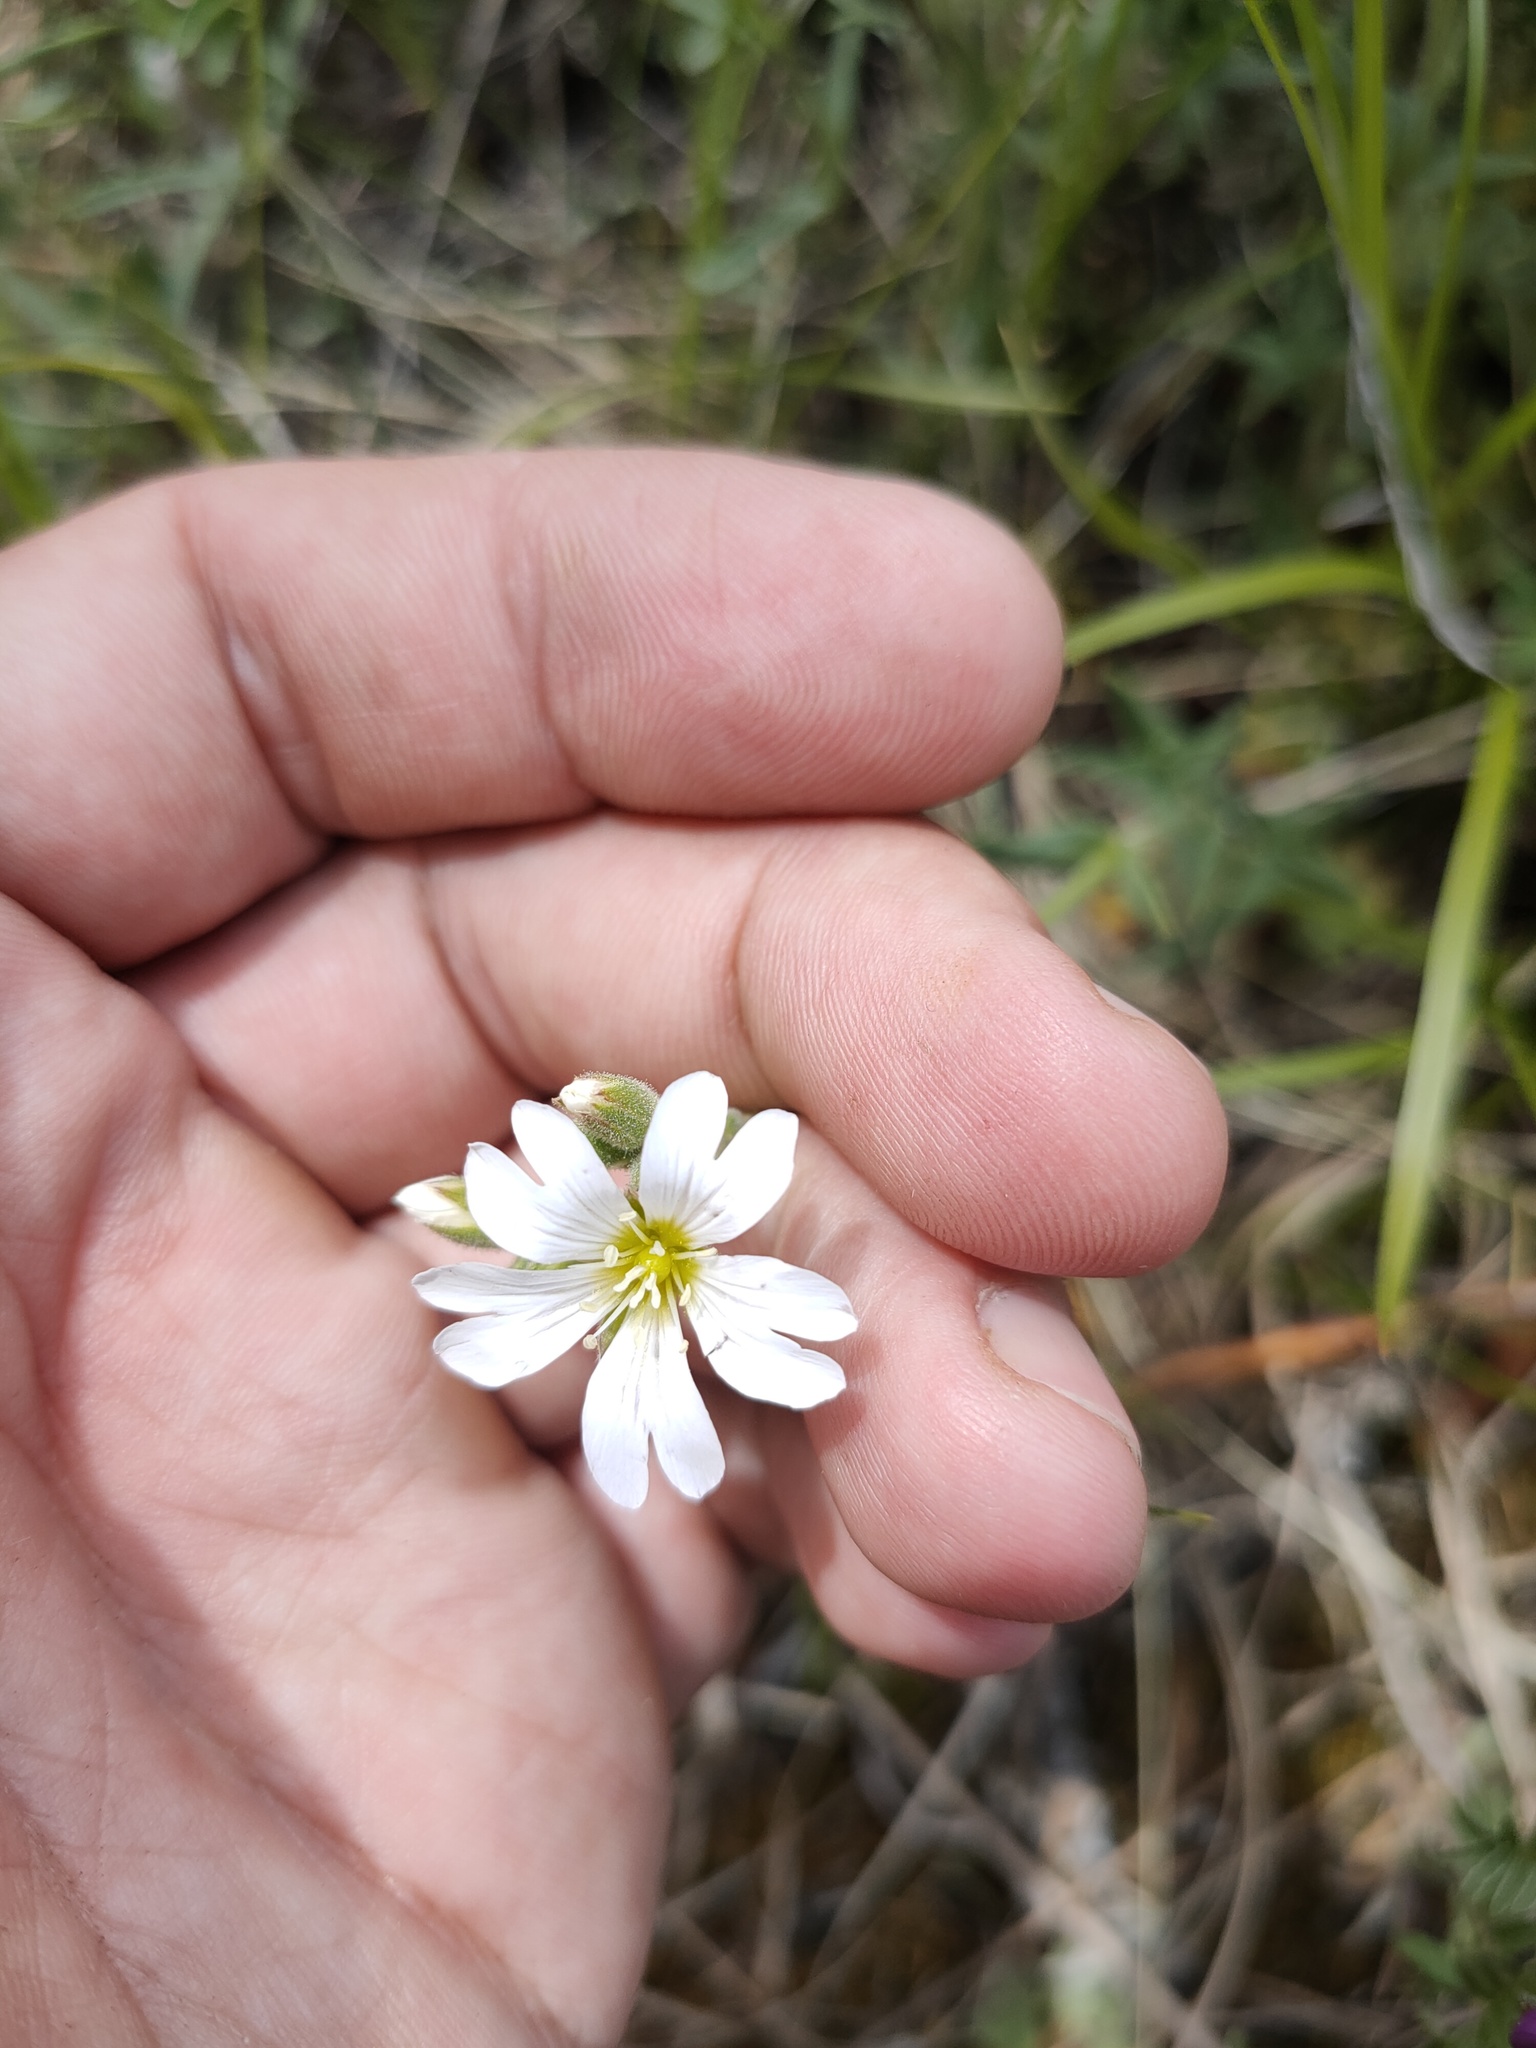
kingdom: Plantae
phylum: Tracheophyta
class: Magnoliopsida
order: Caryophyllales
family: Caryophyllaceae
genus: Cerastium
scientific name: Cerastium arvense
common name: Field mouse-ear
